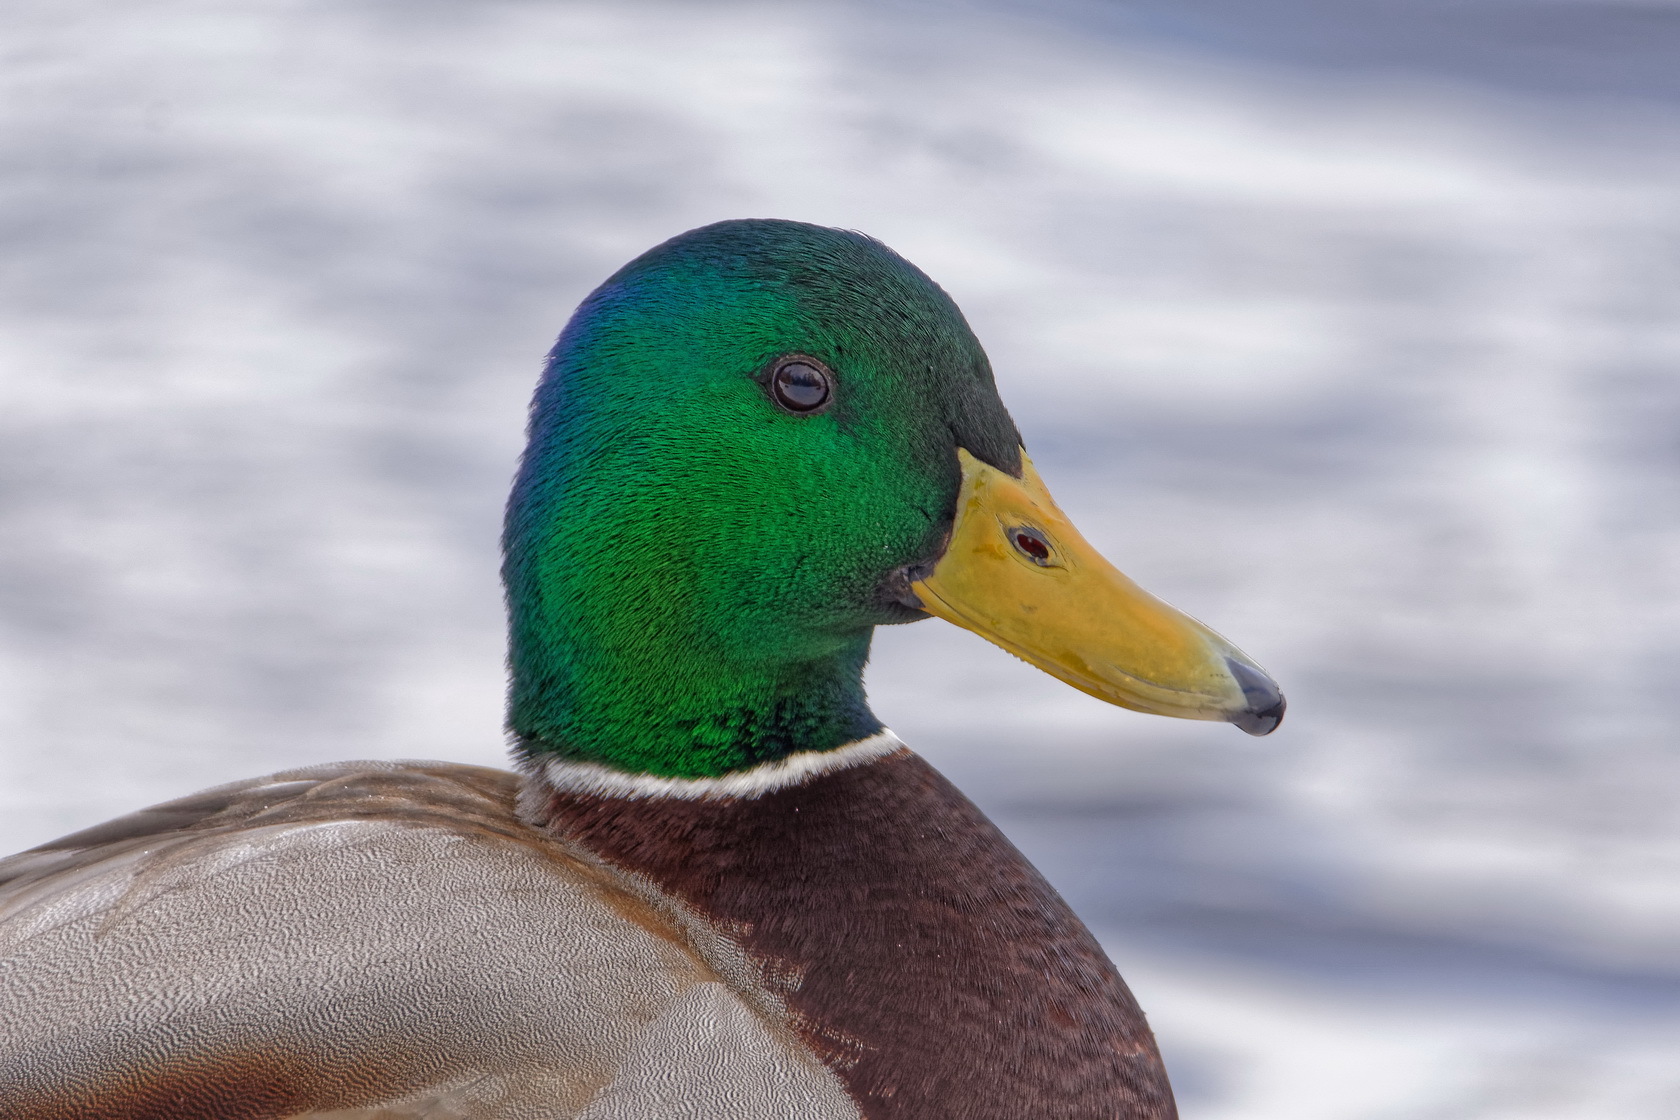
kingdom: Animalia
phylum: Chordata
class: Aves
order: Anseriformes
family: Anatidae
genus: Anas
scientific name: Anas platyrhynchos
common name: Mallard
